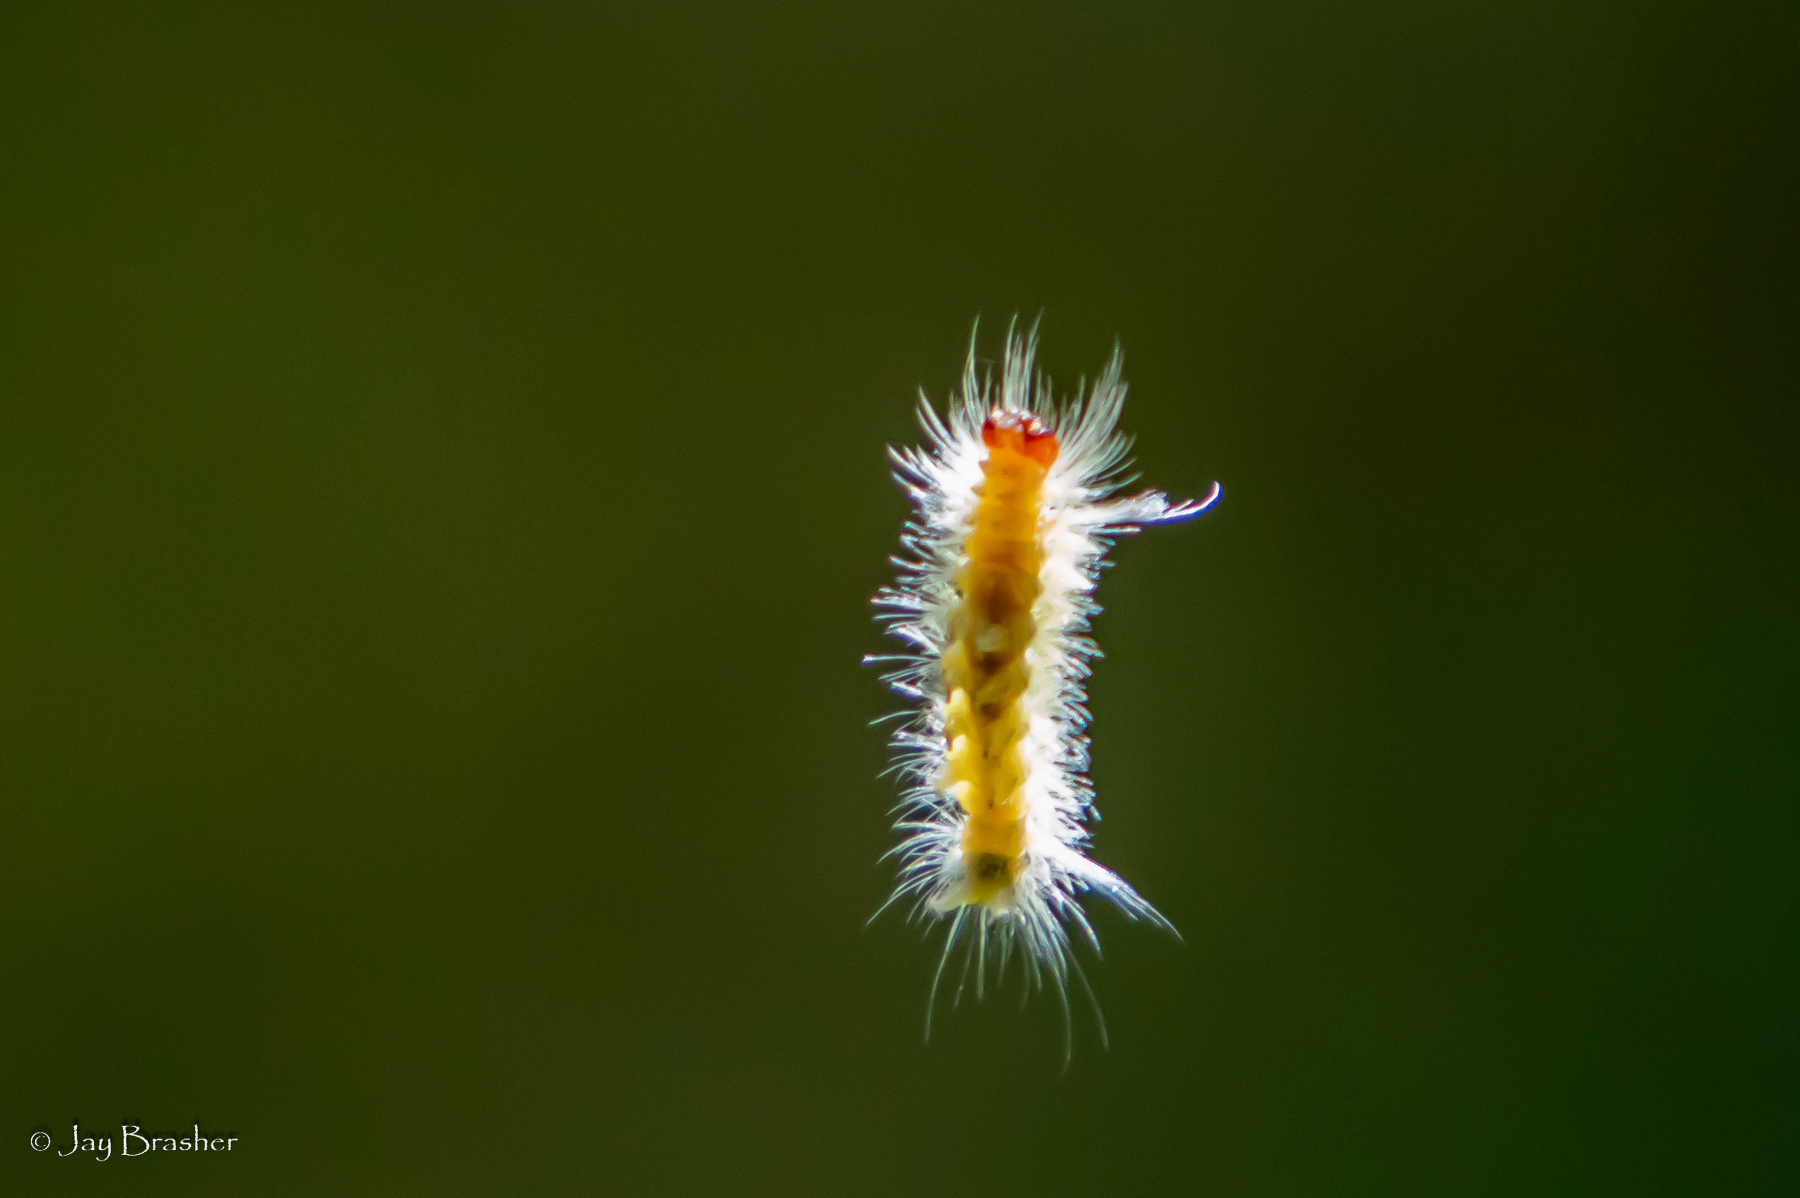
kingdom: Animalia
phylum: Arthropoda
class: Insecta
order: Lepidoptera
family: Erebidae
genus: Halysidota
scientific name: Halysidota harrisii
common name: Sycamore tussock moth
